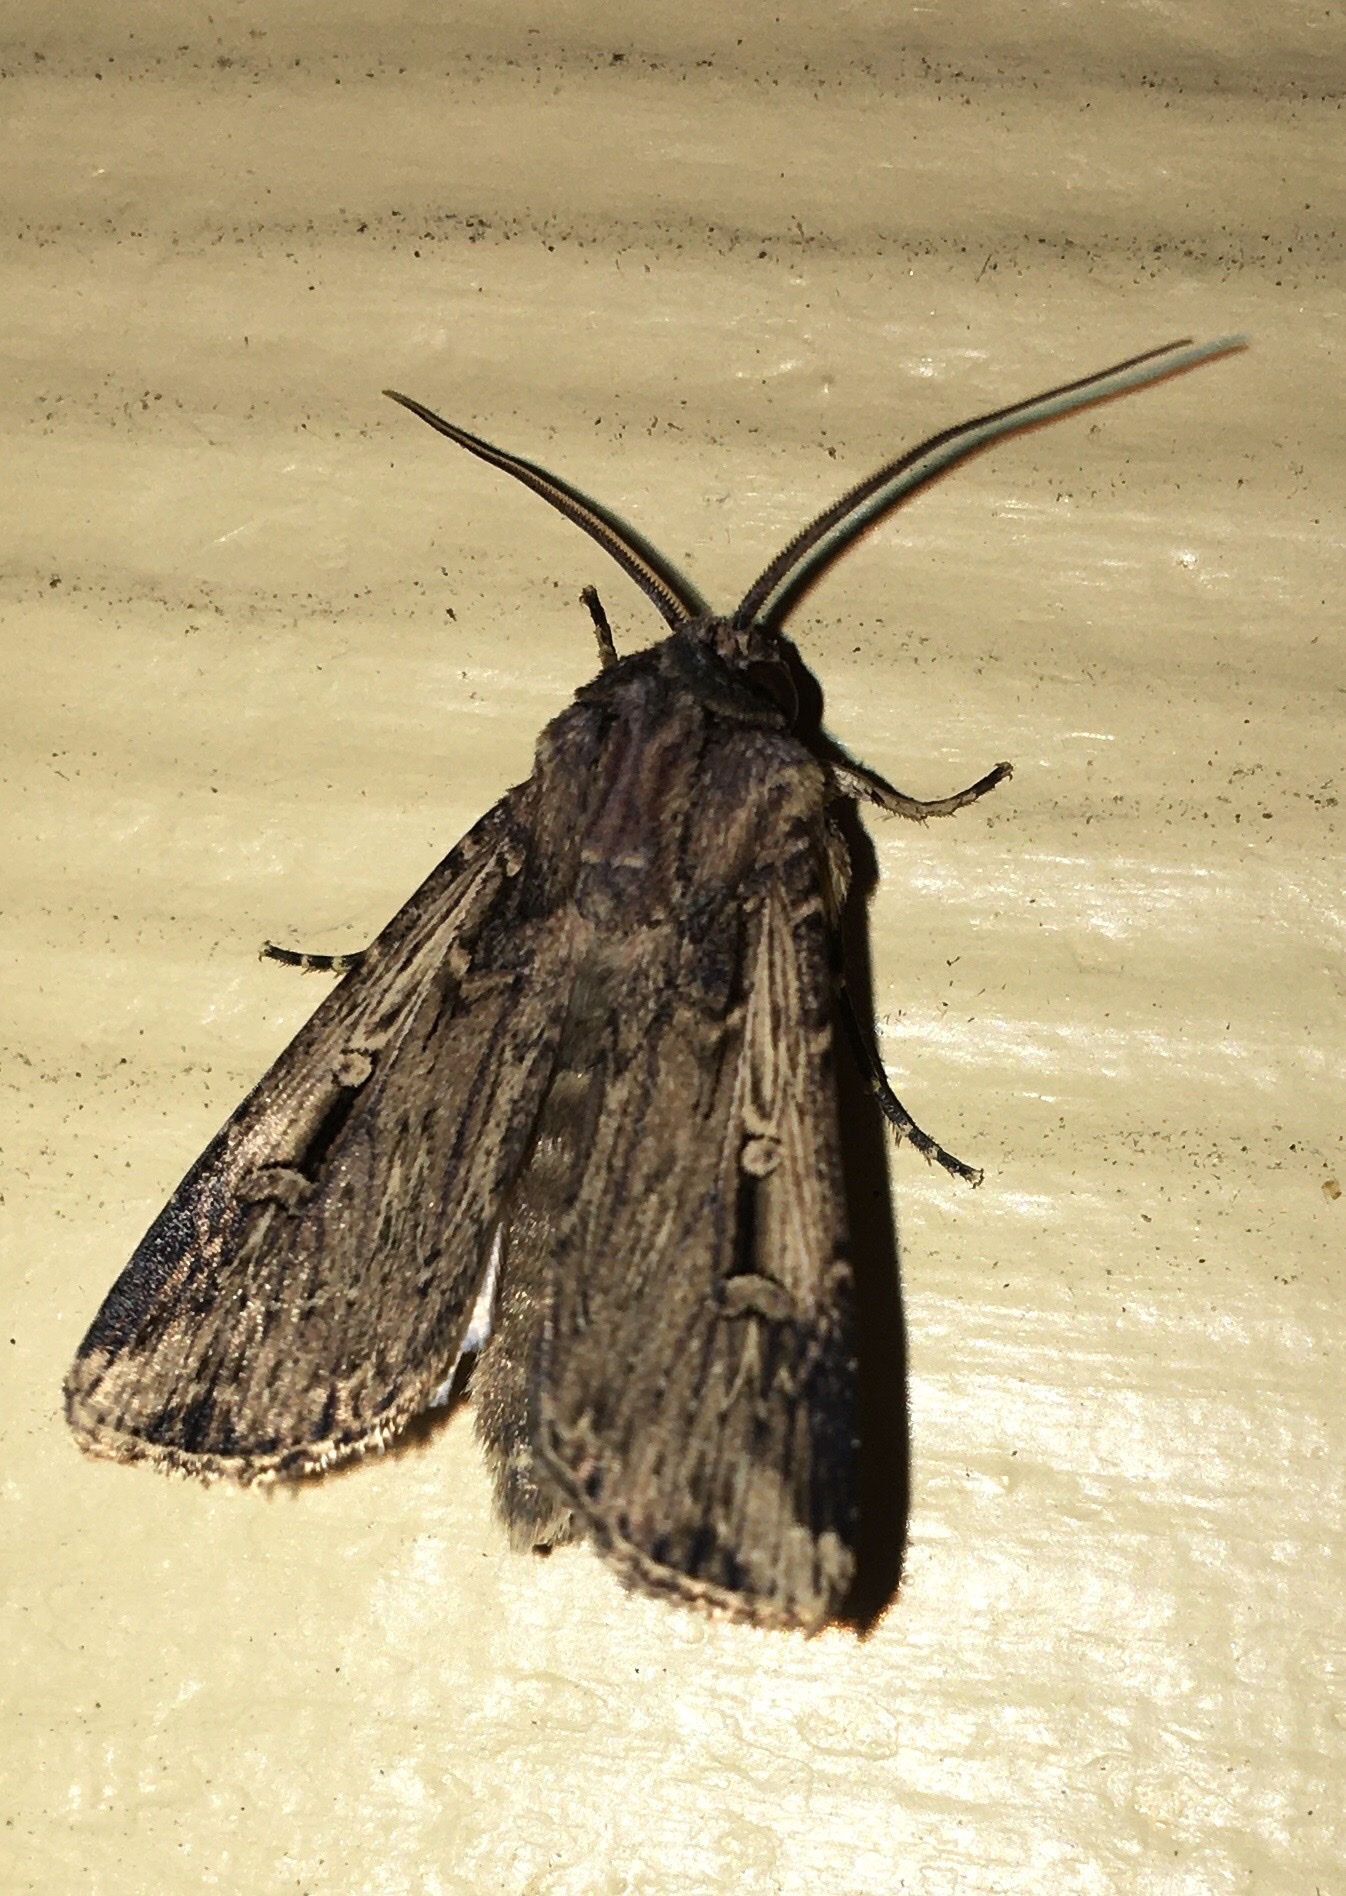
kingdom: Animalia
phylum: Arthropoda
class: Insecta
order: Lepidoptera
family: Noctuidae
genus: Feltia
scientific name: Feltia subterranea
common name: Granulate cutworm
